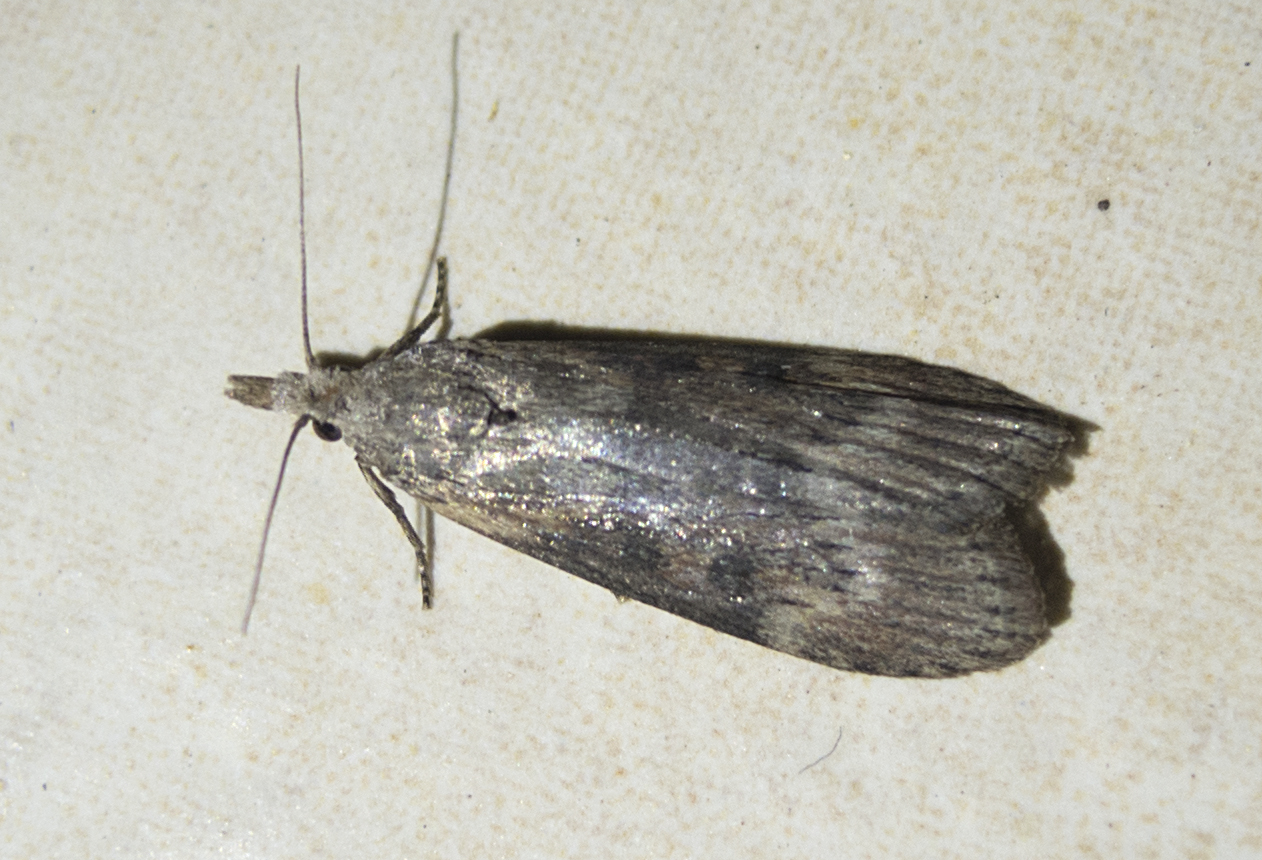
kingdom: Animalia
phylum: Arthropoda
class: Insecta
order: Lepidoptera
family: Pyralidae
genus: Lamoria
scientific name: Lamoria anella
